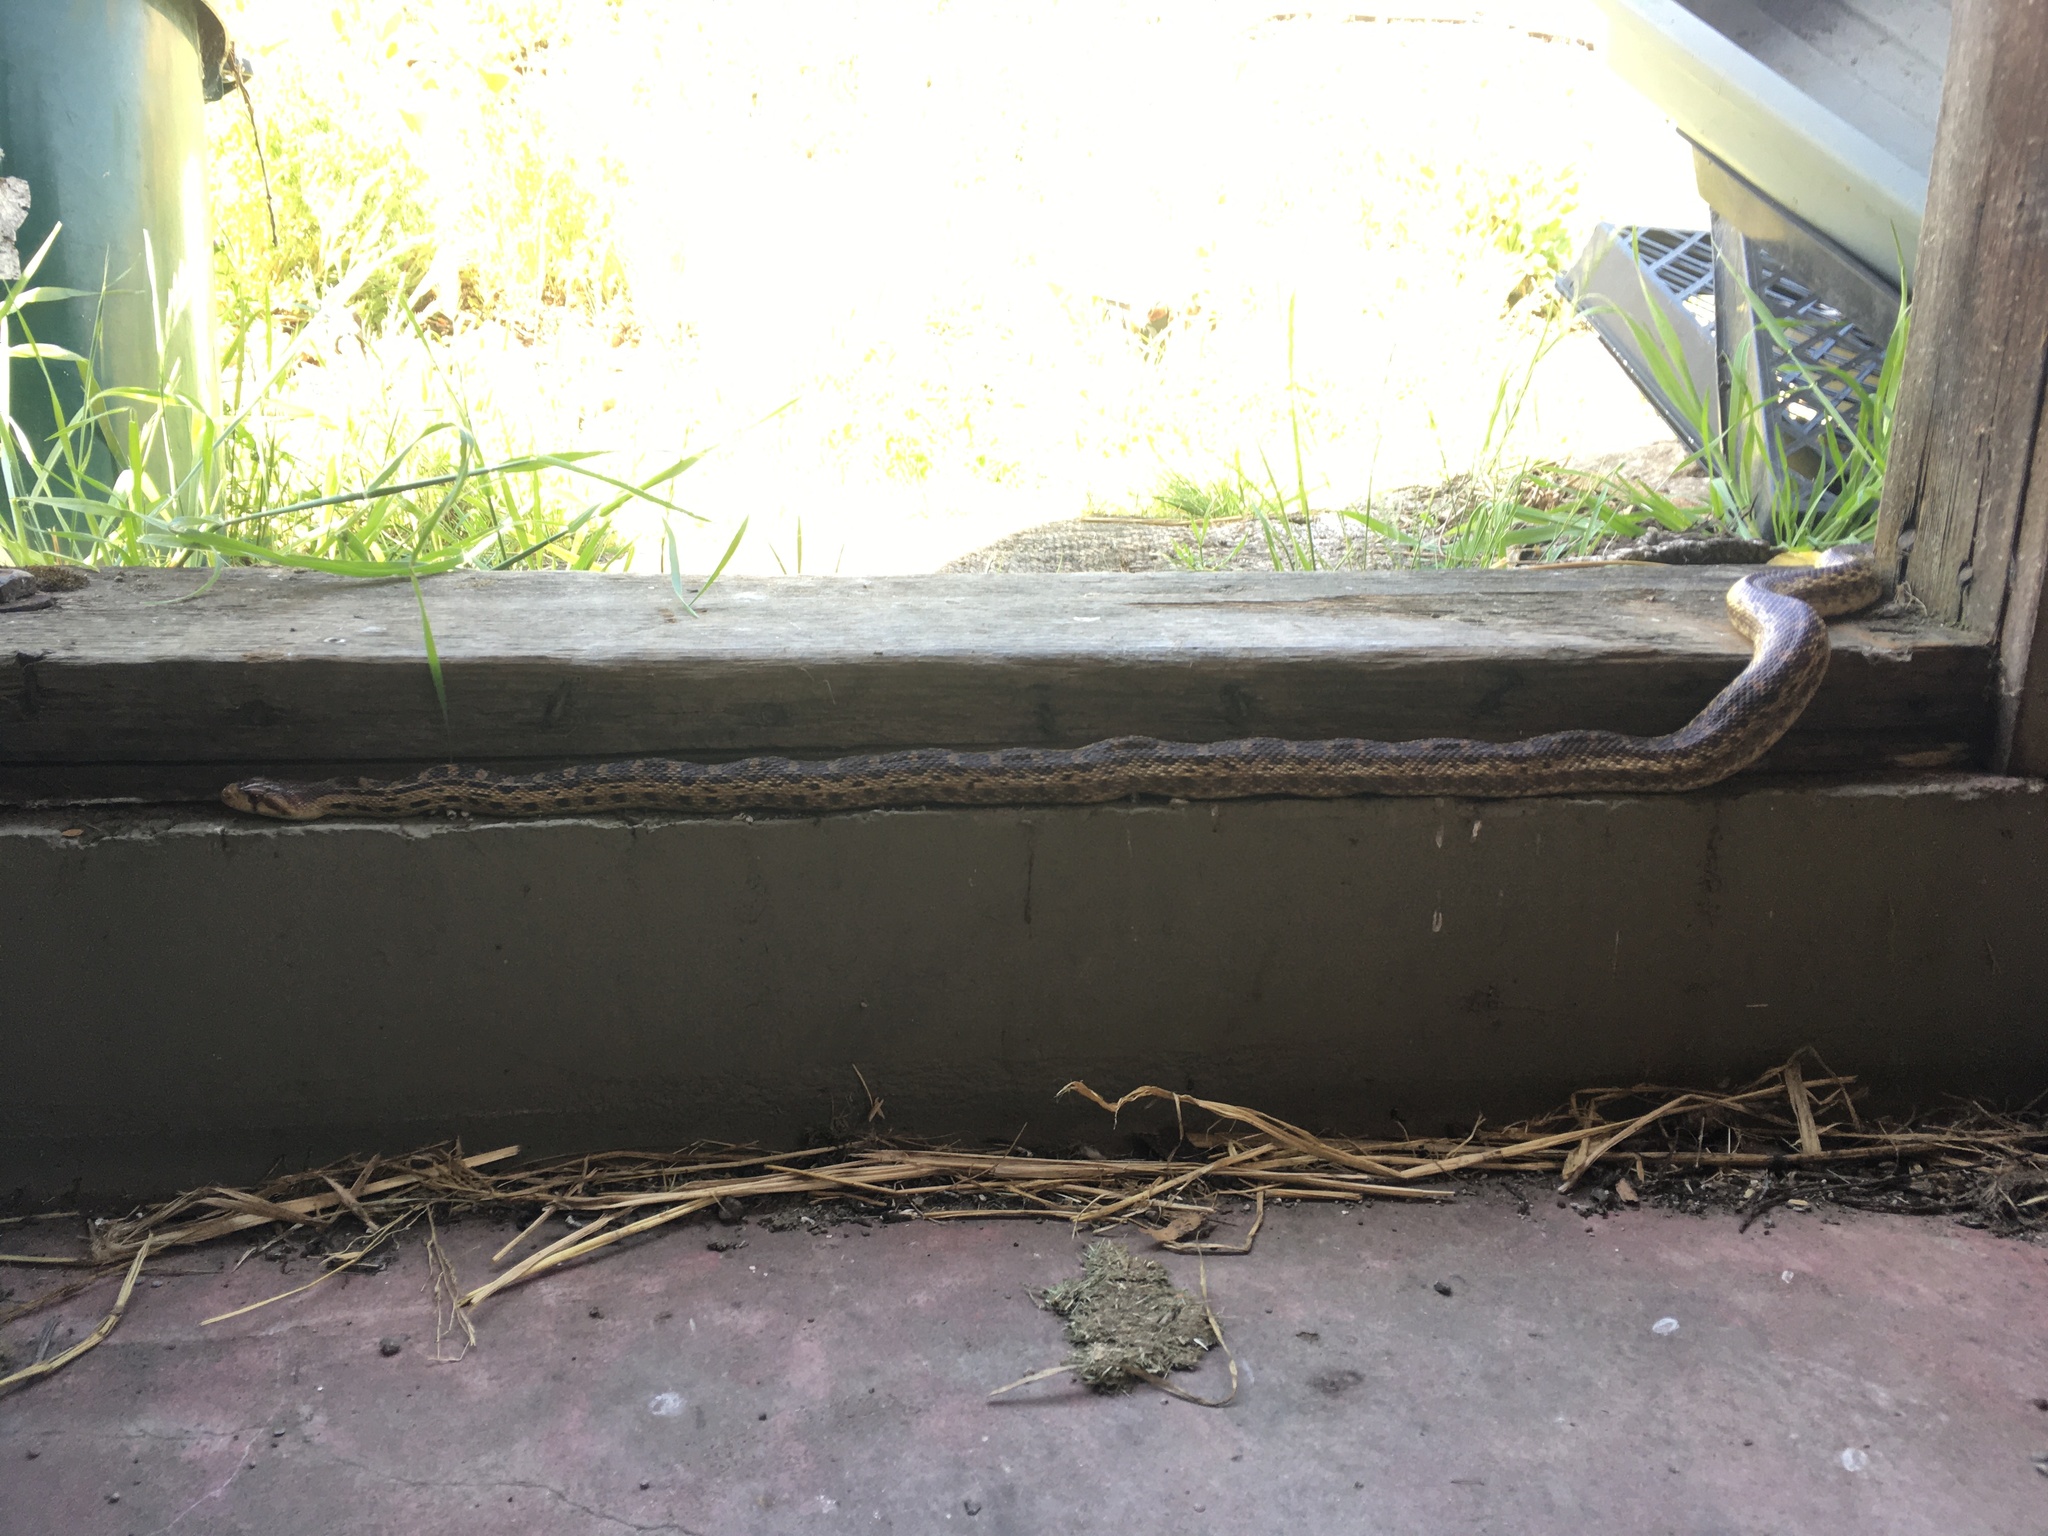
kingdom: Animalia
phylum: Chordata
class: Squamata
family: Colubridae
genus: Pituophis
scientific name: Pituophis catenifer
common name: Gopher snake
